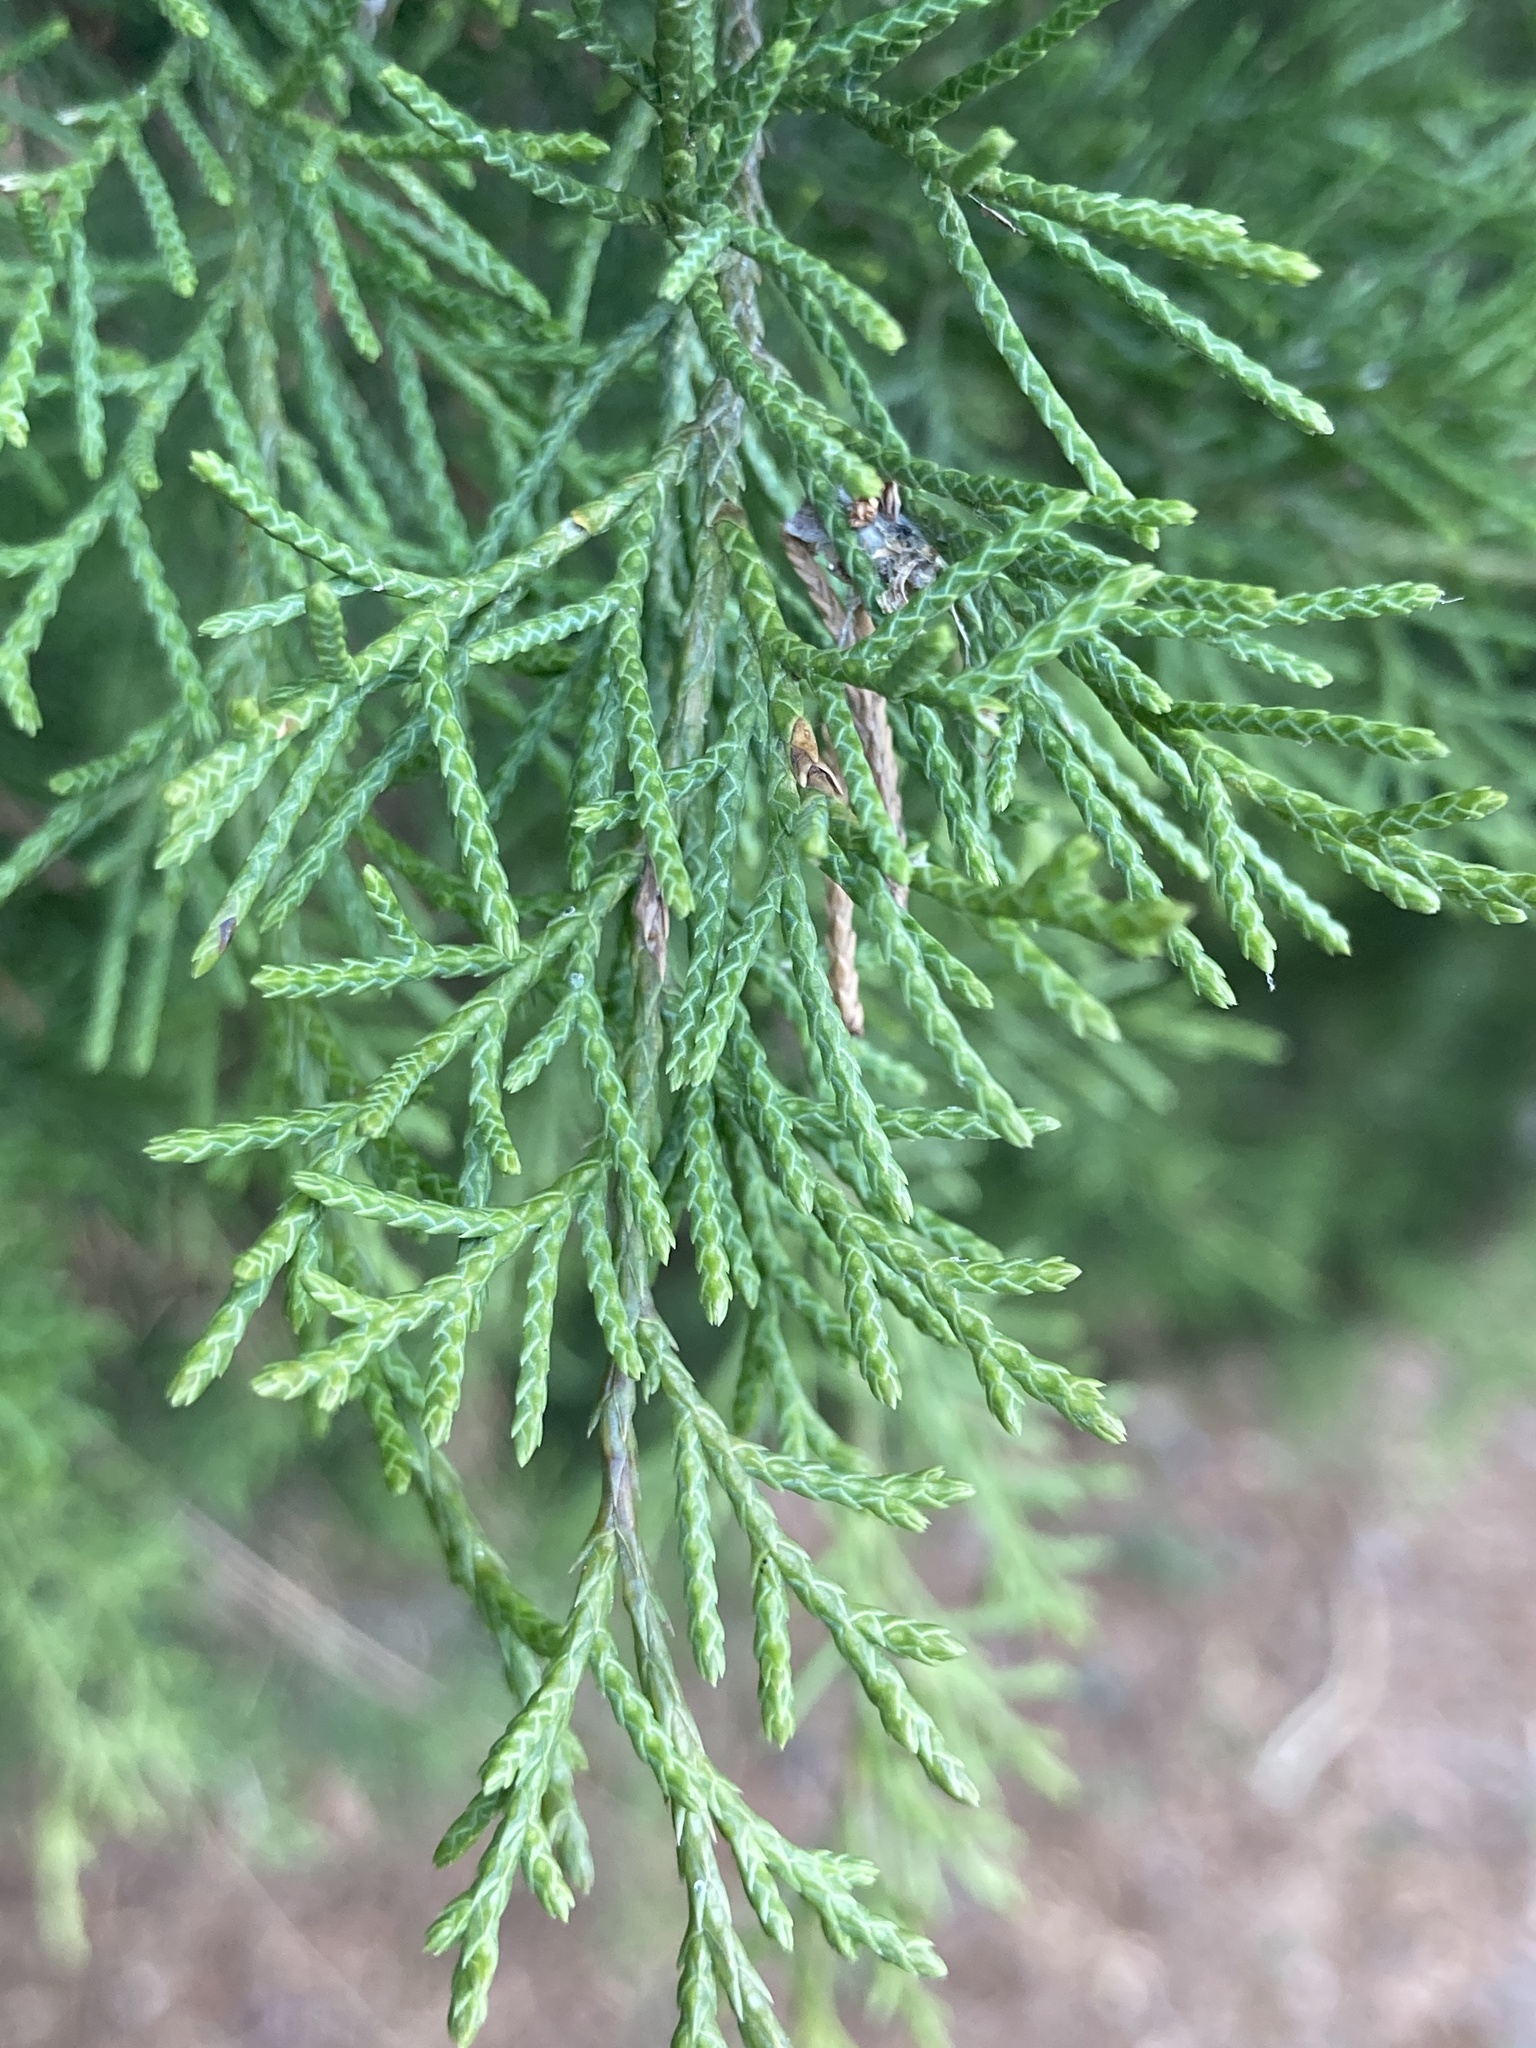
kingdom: Plantae
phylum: Tracheophyta
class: Pinopsida
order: Pinales
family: Cupressaceae
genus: Juniperus
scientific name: Juniperus virginiana
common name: Red juniper
